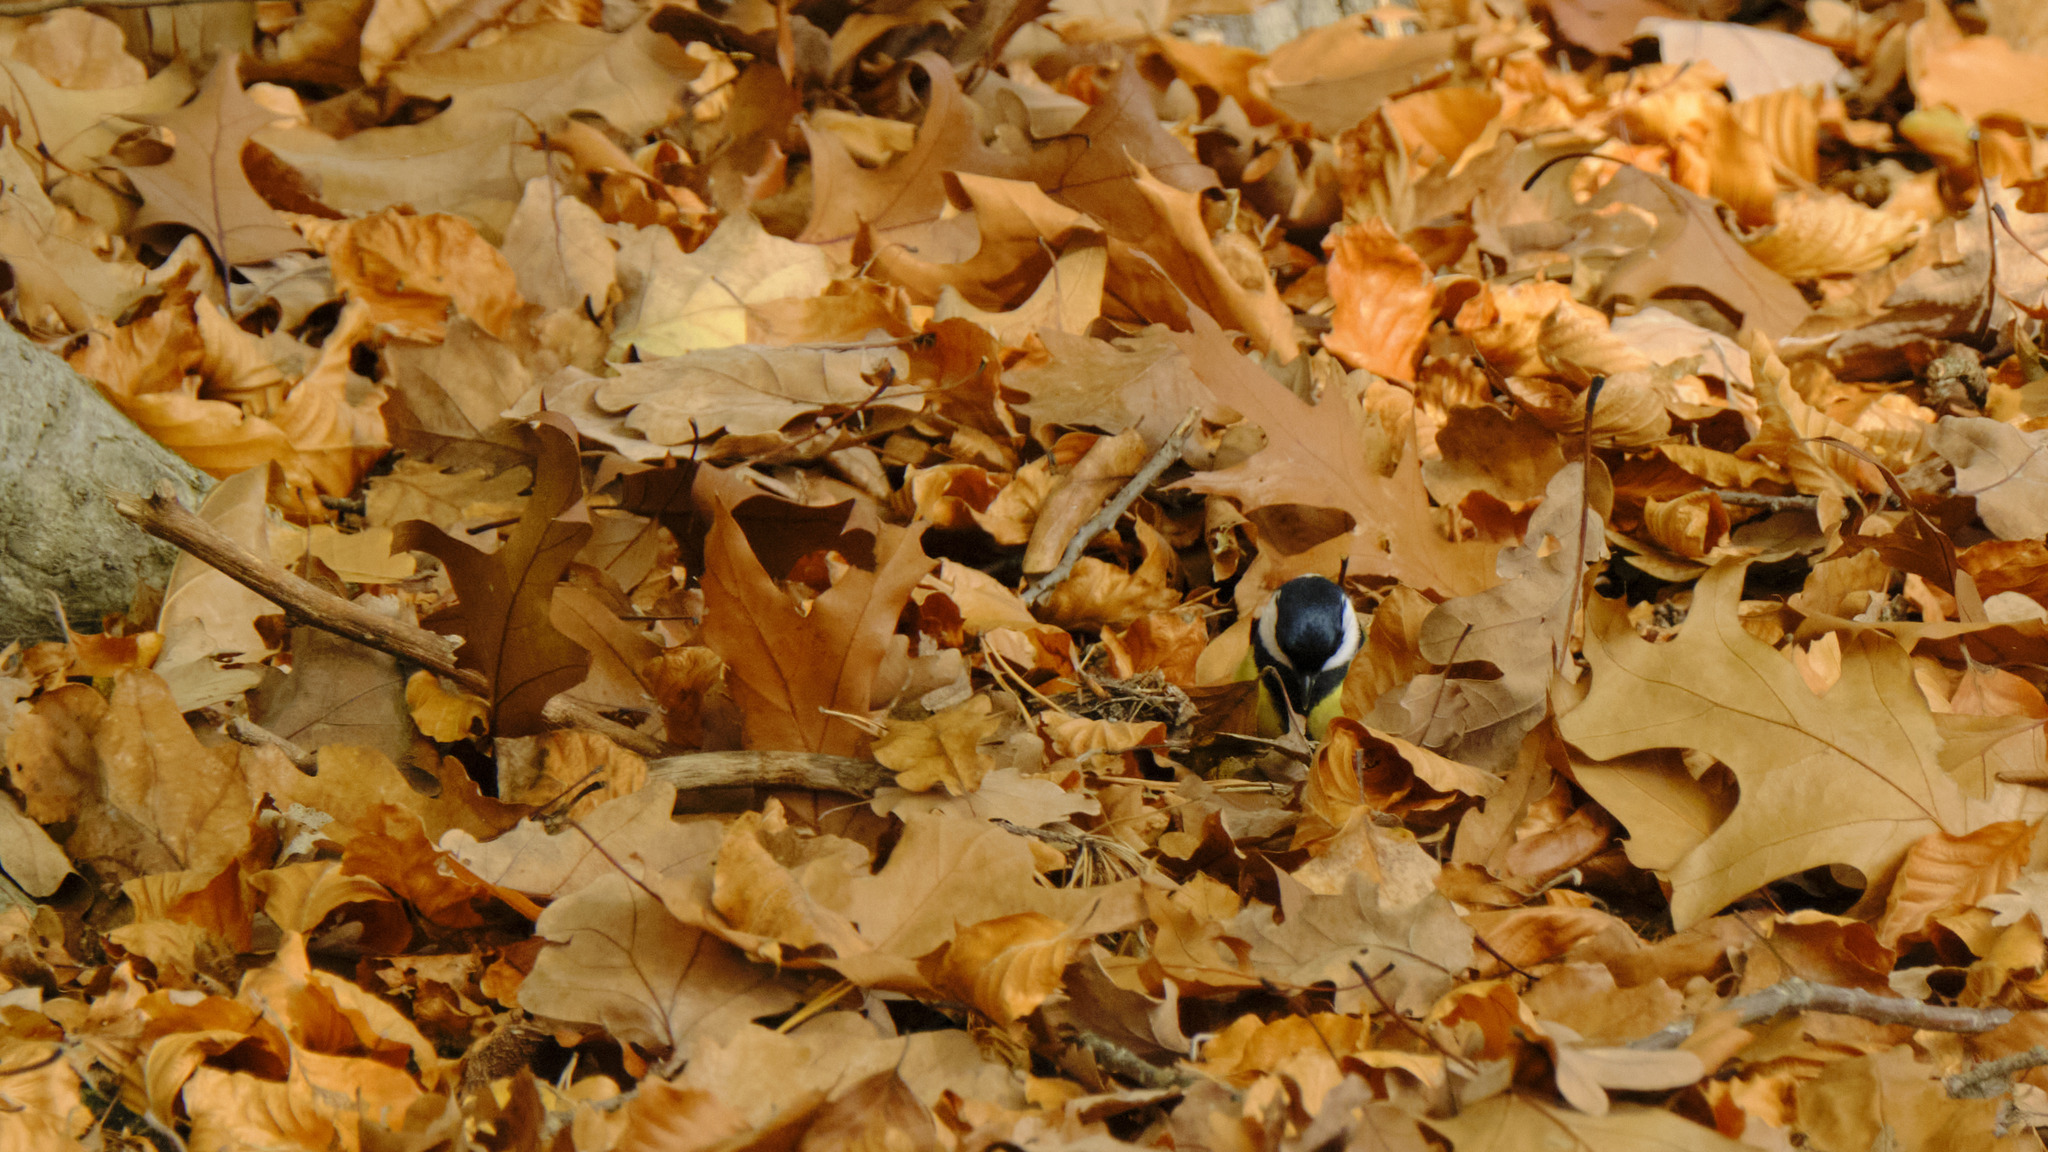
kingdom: Animalia
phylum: Chordata
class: Aves
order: Passeriformes
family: Paridae
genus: Parus
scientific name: Parus major
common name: Great tit
